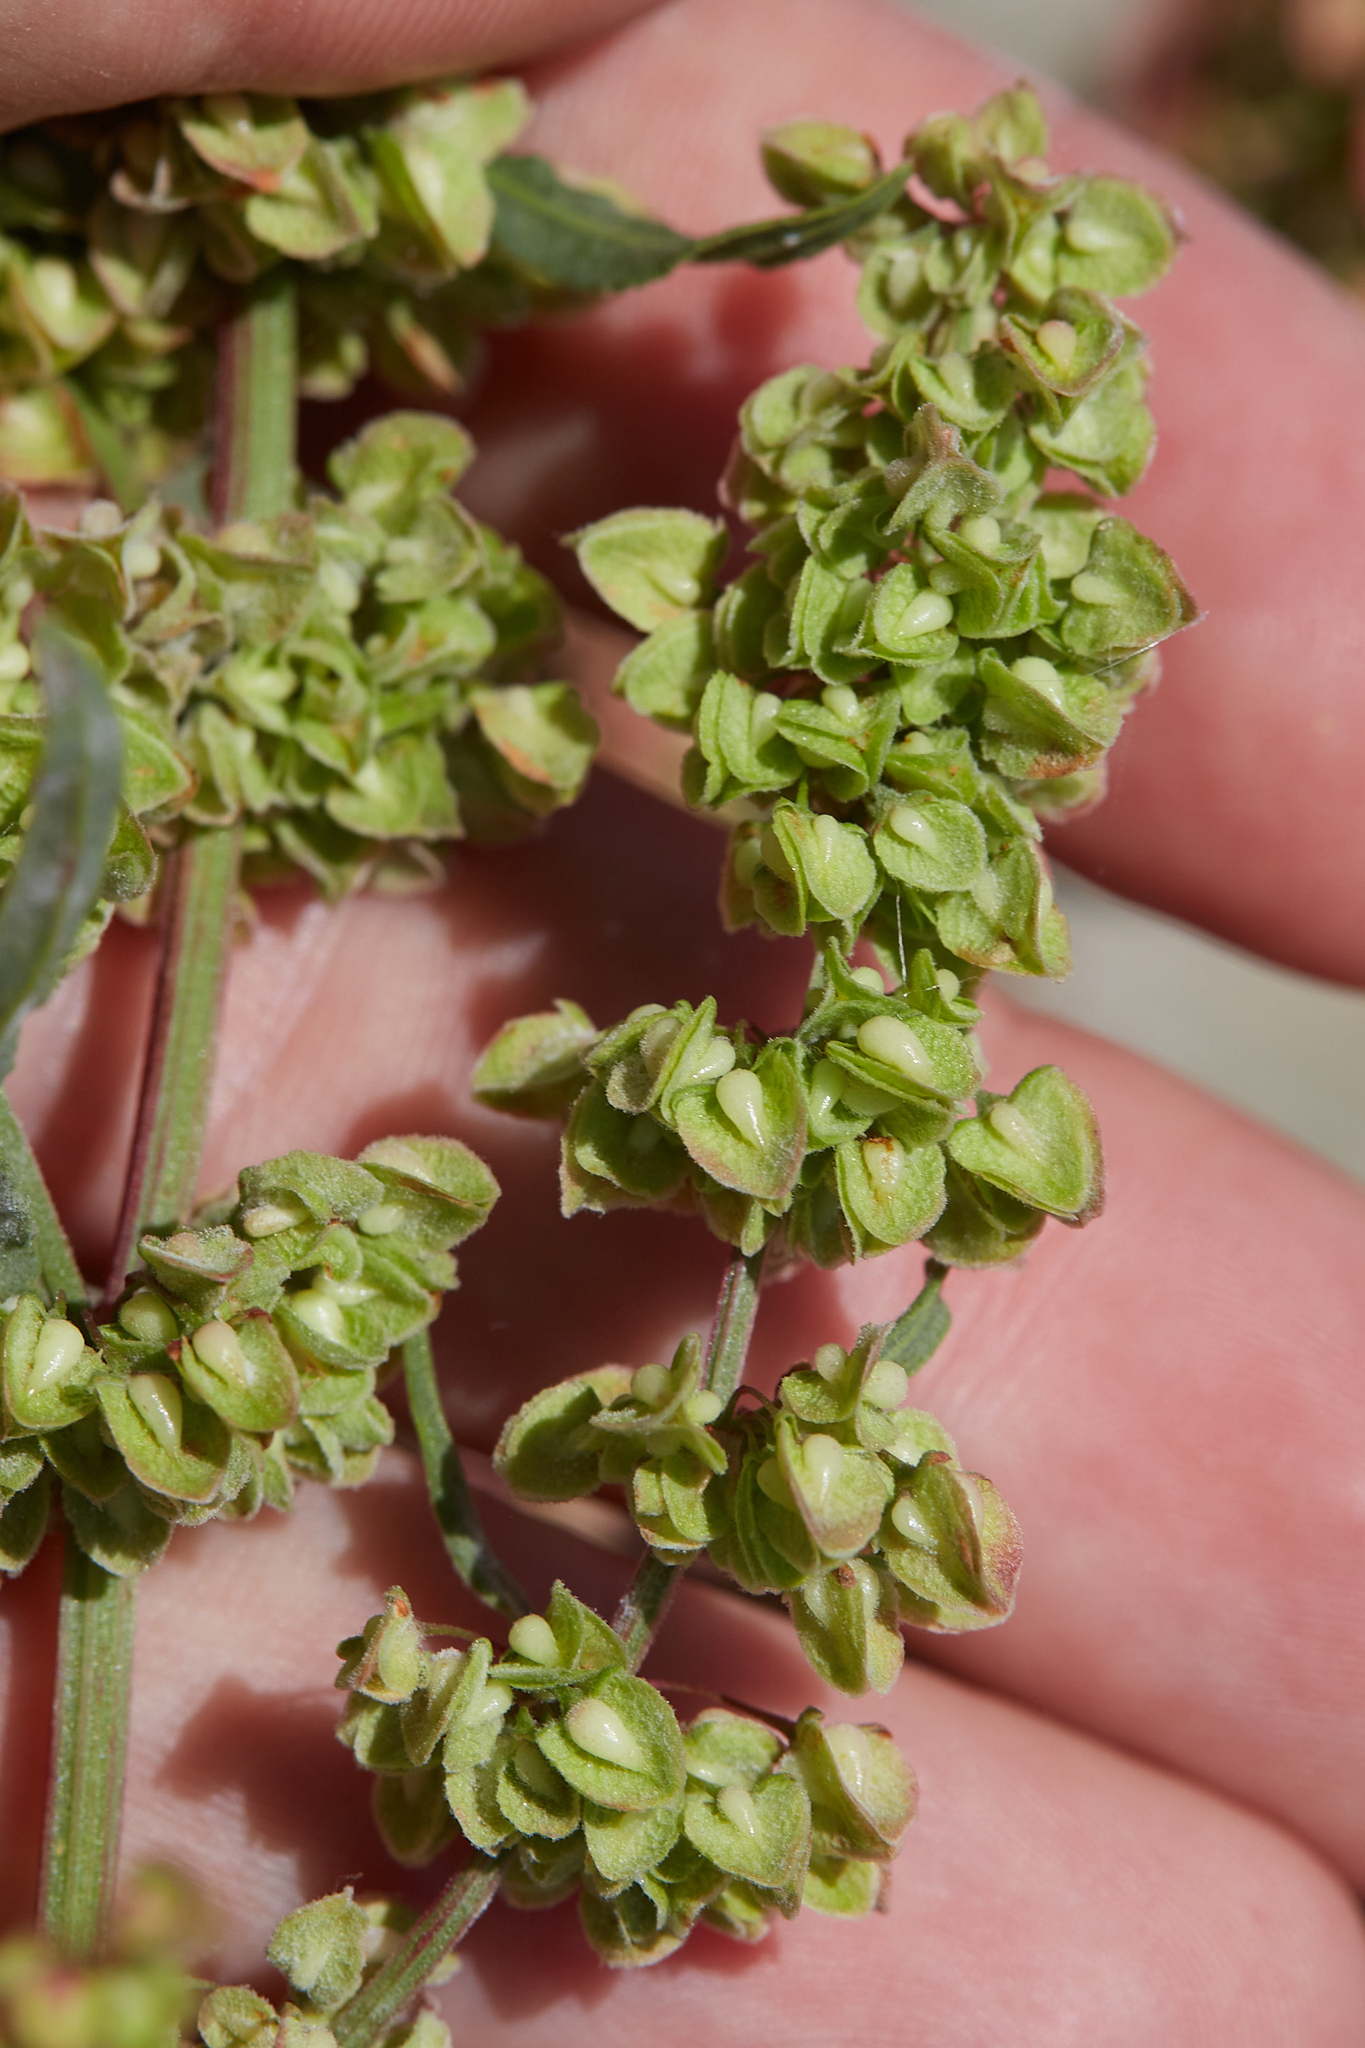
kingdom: Plantae
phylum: Tracheophyta
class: Magnoliopsida
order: Caryophyllales
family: Polygonaceae
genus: Rumex
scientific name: Rumex crispus
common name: Curled dock
